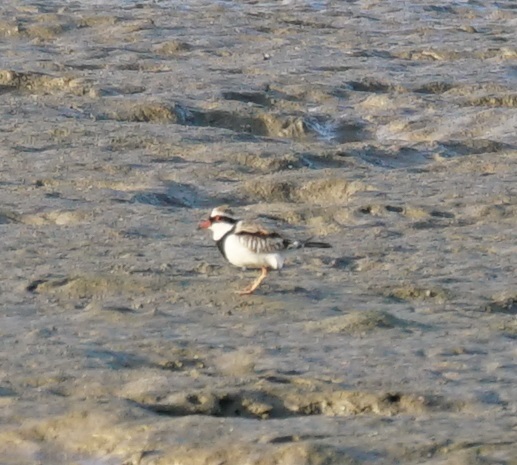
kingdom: Animalia
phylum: Chordata
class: Aves
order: Charadriiformes
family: Charadriidae
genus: Elseyornis
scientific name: Elseyornis melanops
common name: Black-fronted dotterel
